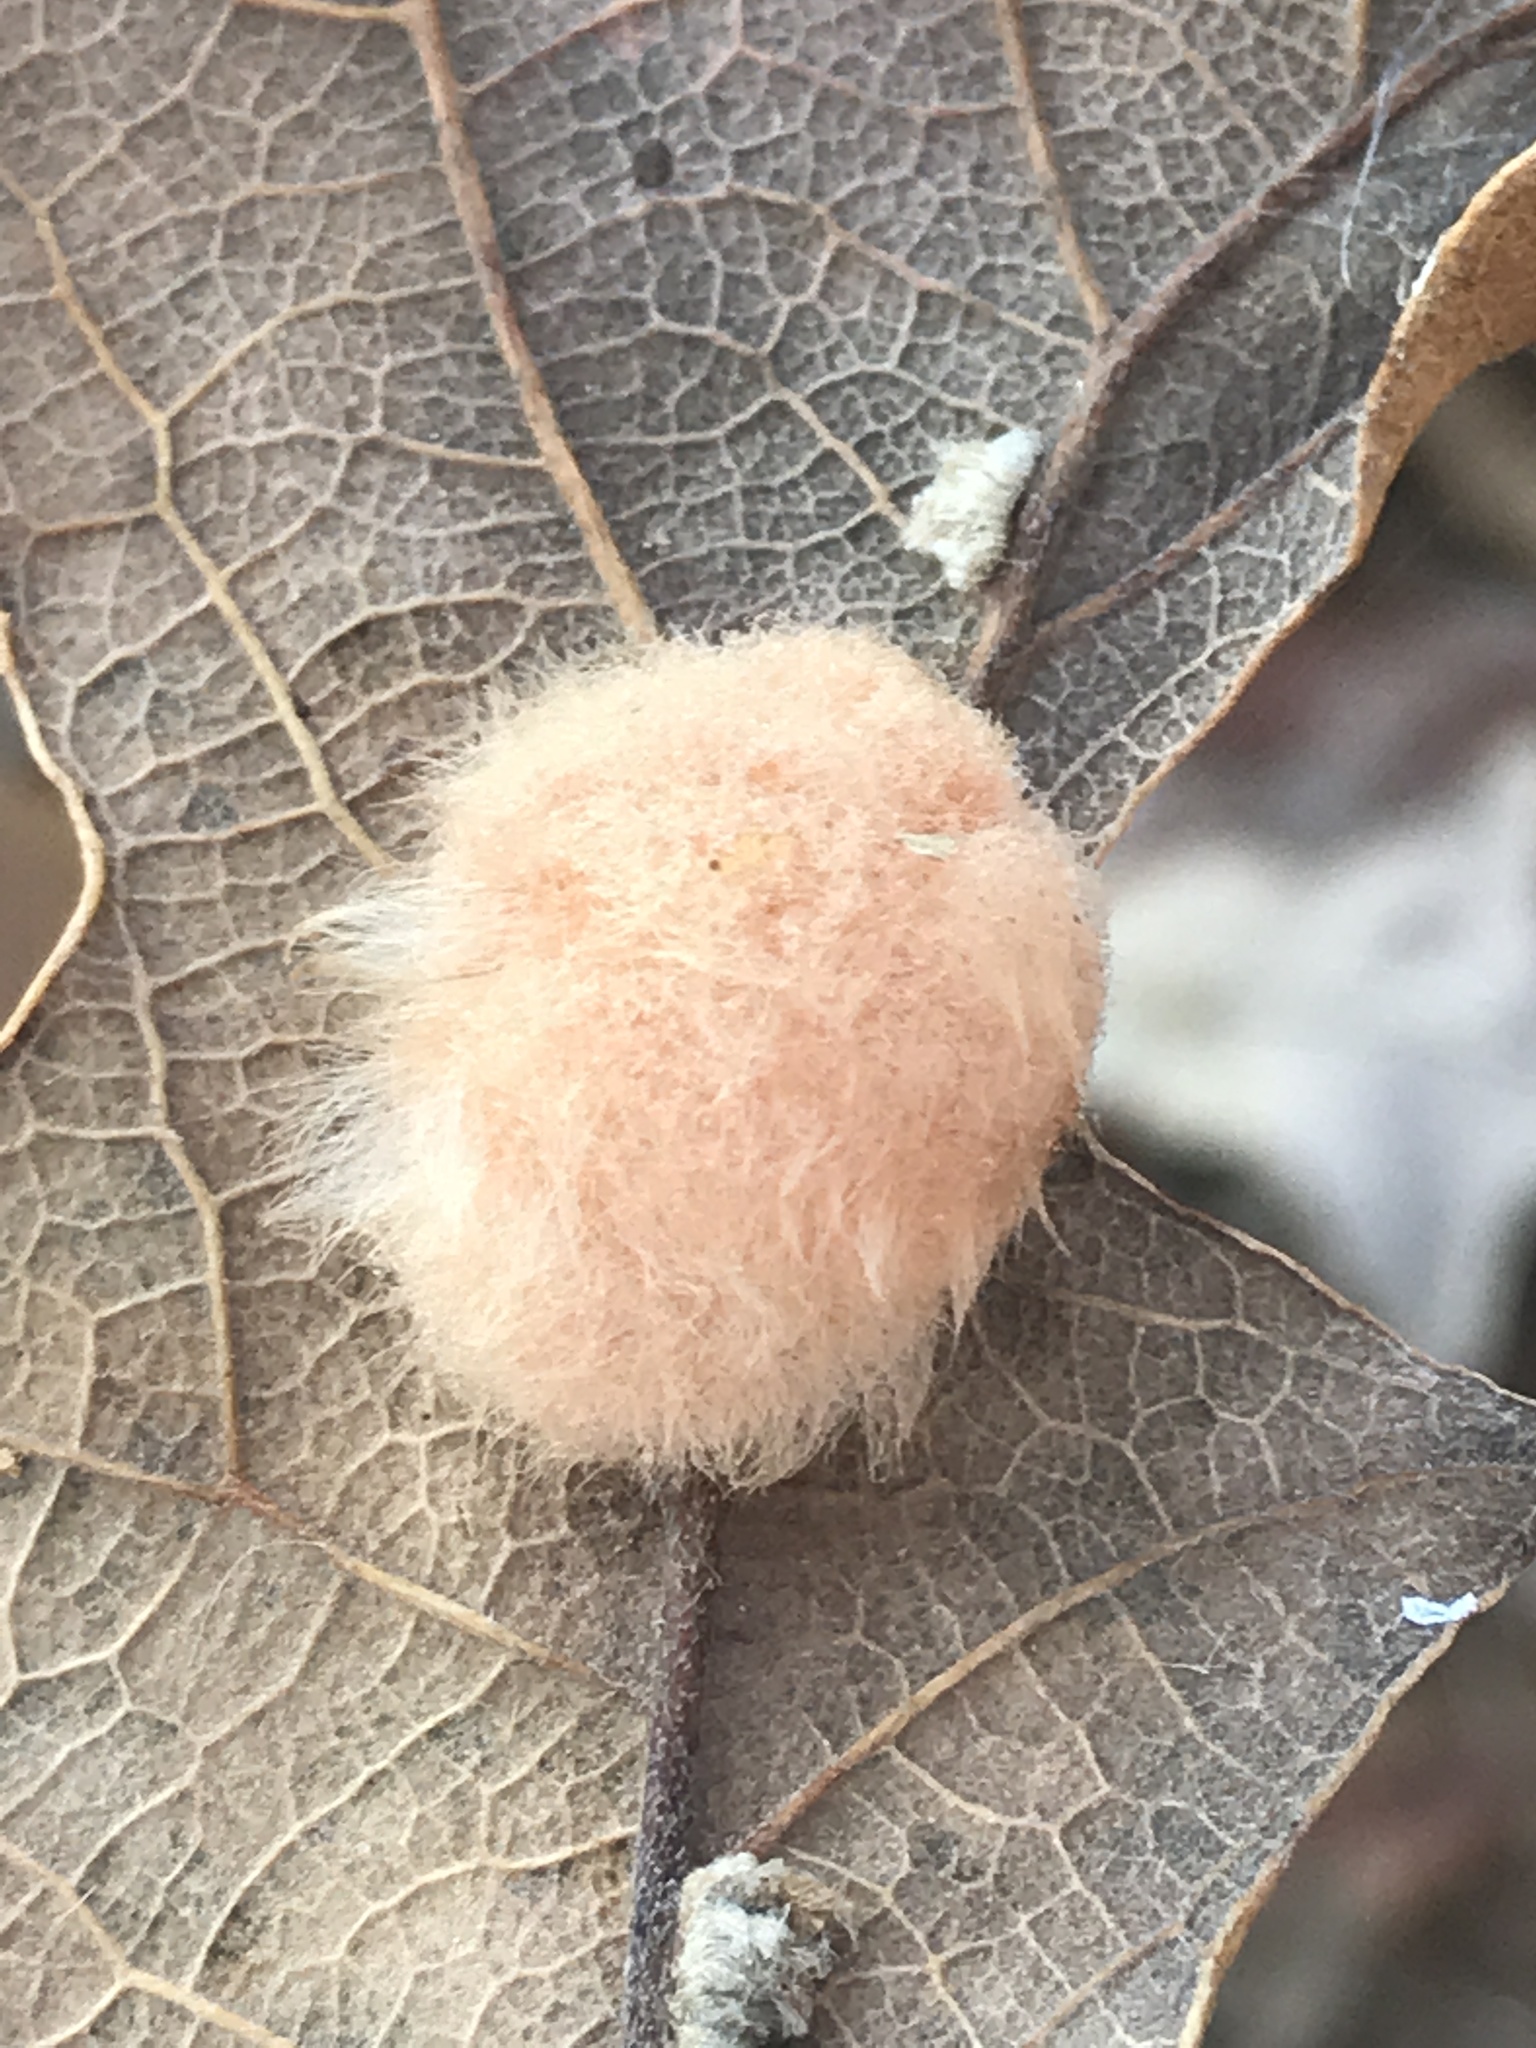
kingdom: Animalia
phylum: Arthropoda
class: Insecta
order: Hymenoptera
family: Cynipidae
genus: Andricus
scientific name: Andricus Druon pattoni
